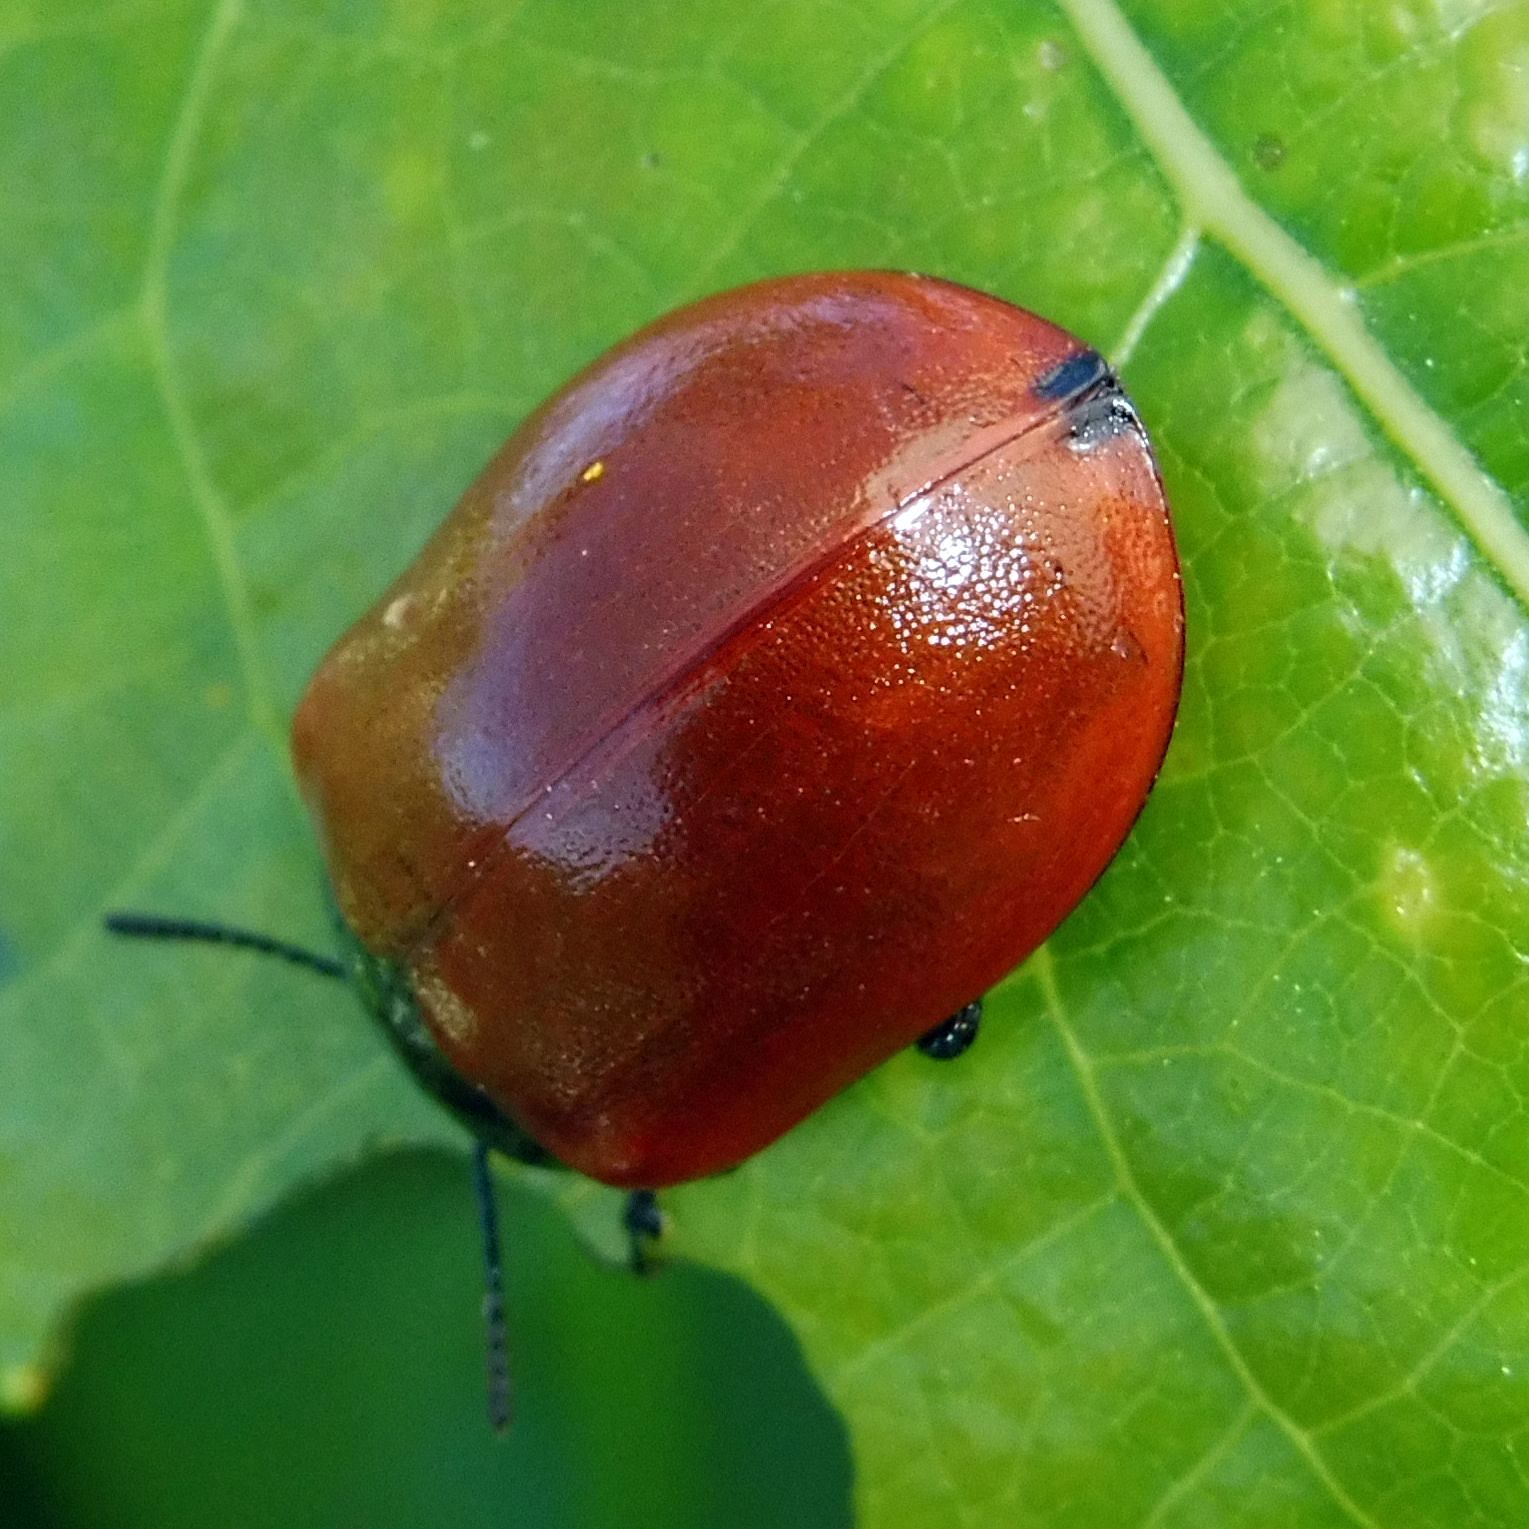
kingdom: Animalia
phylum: Arthropoda
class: Insecta
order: Coleoptera
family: Chrysomelidae
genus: Chrysomela
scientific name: Chrysomela populi
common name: Red poplar leaf beetle
